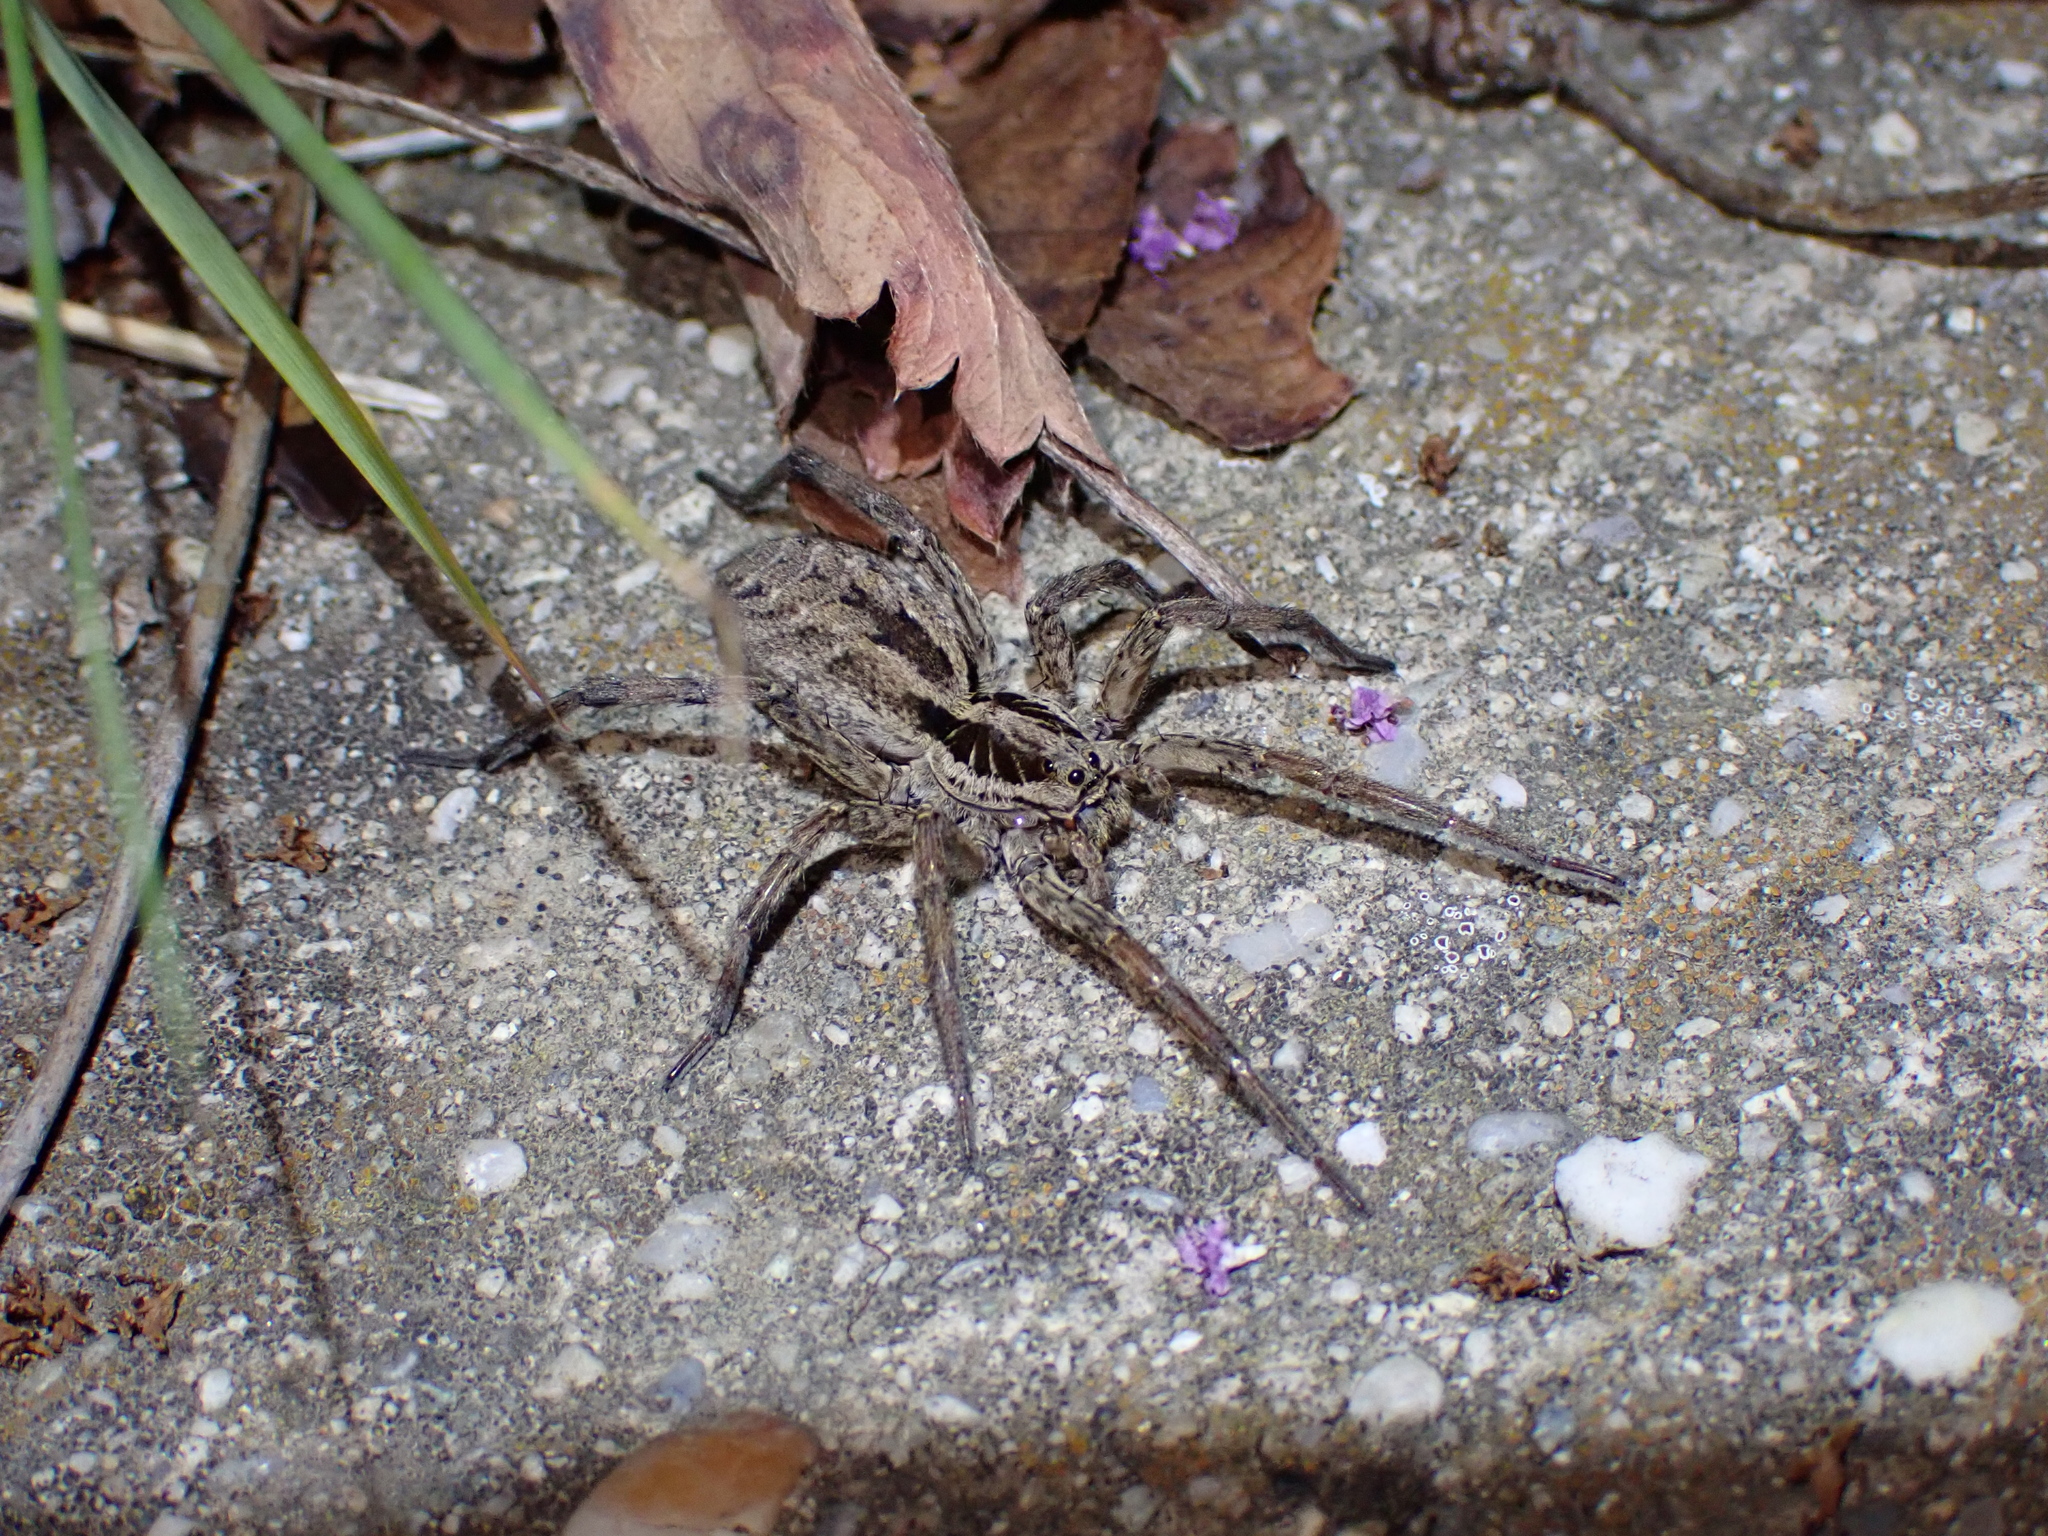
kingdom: Animalia
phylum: Arthropoda
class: Arachnida
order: Araneae
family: Lycosidae
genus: Hogna
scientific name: Hogna radiata
